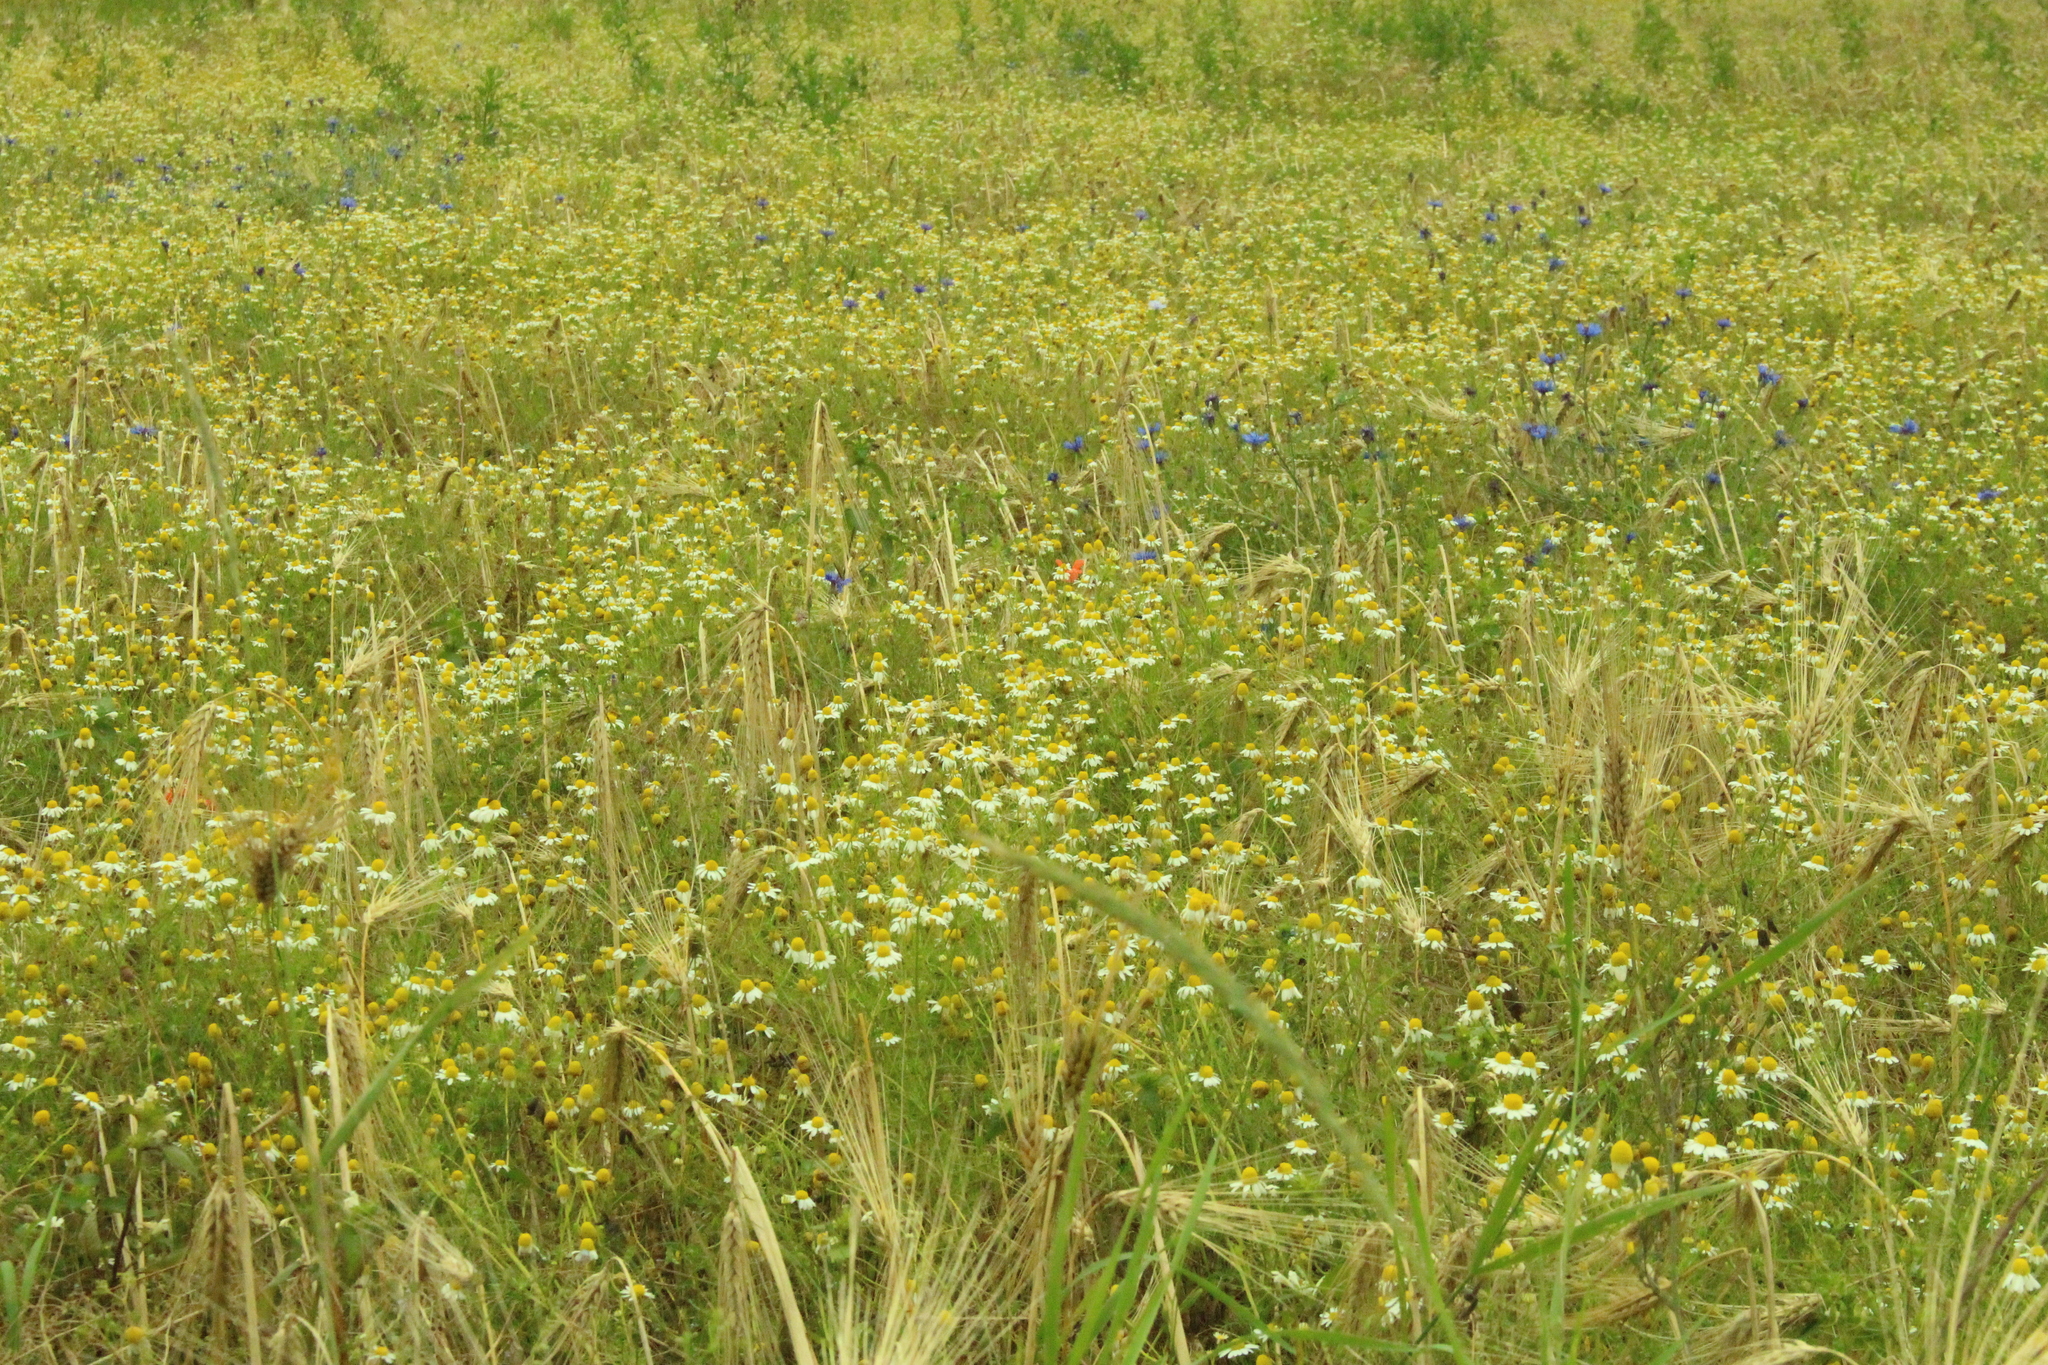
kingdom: Plantae
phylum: Tracheophyta
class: Magnoliopsida
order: Asterales
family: Asteraceae
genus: Matricaria
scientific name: Matricaria chamomilla
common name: Scented mayweed
